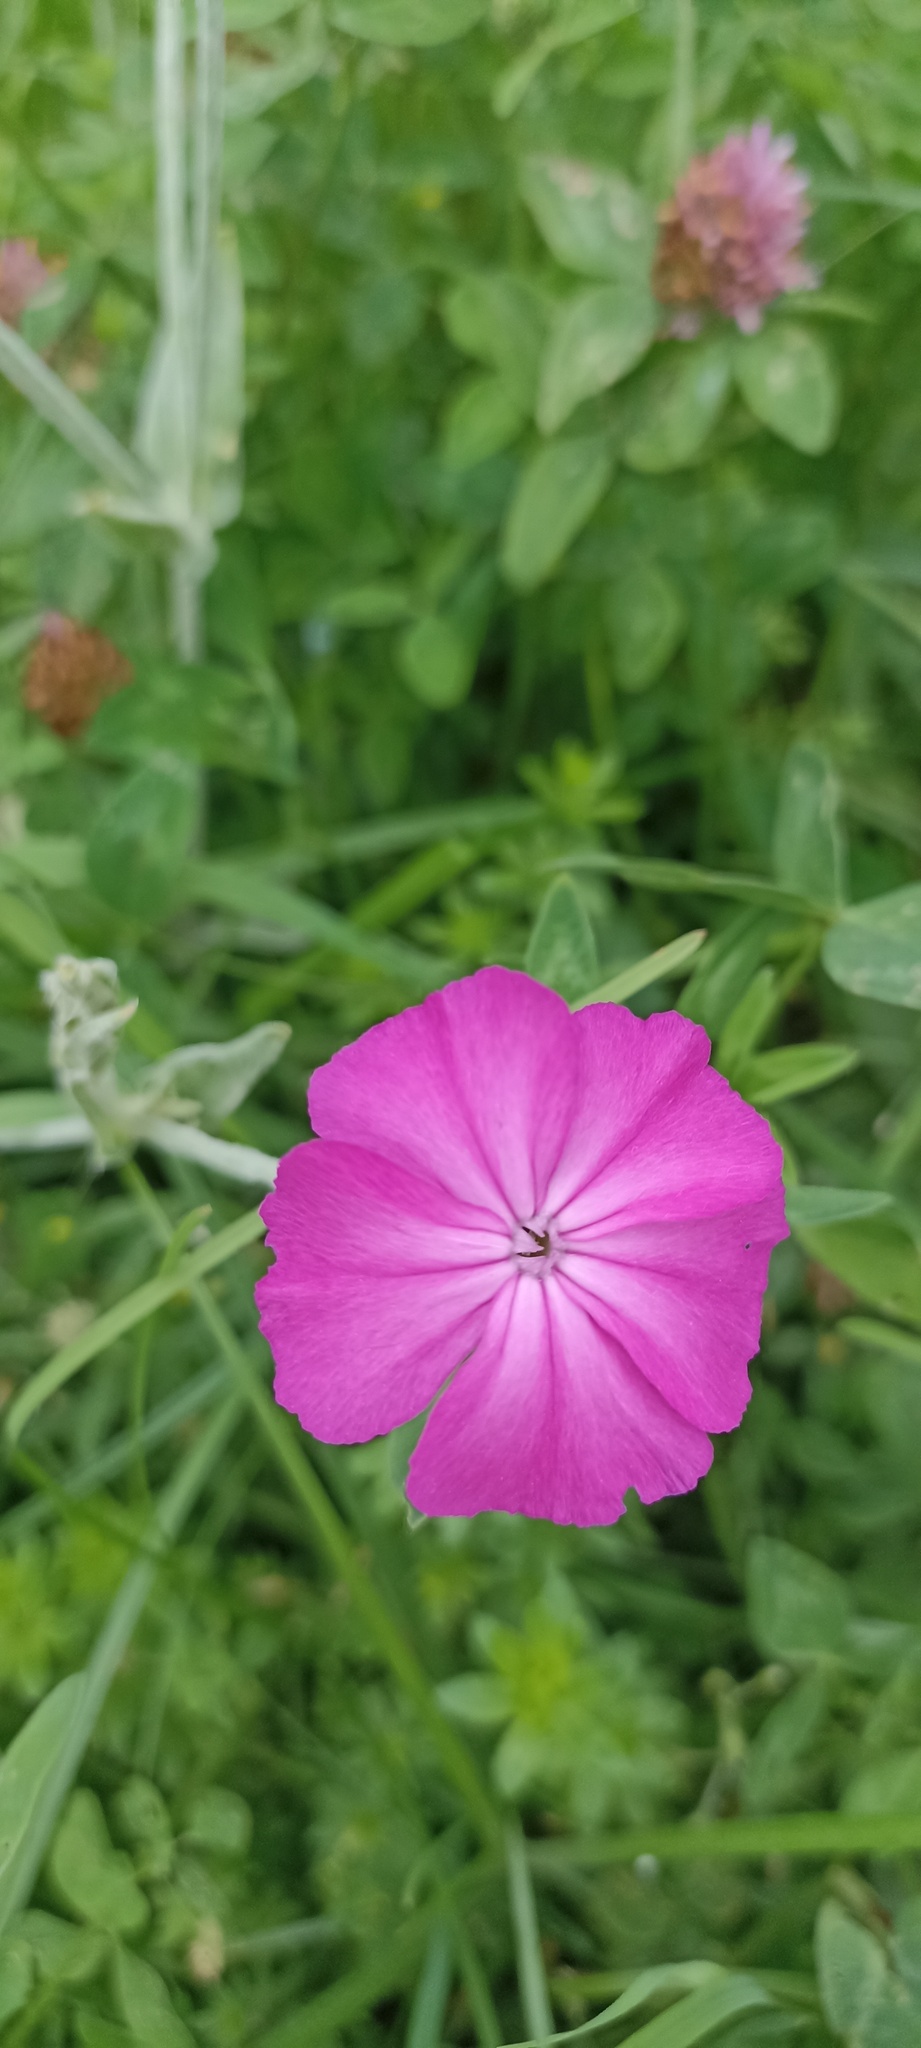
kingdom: Plantae
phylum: Tracheophyta
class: Magnoliopsida
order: Caryophyllales
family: Caryophyllaceae
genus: Silene
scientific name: Silene coronaria
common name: Rose campion
